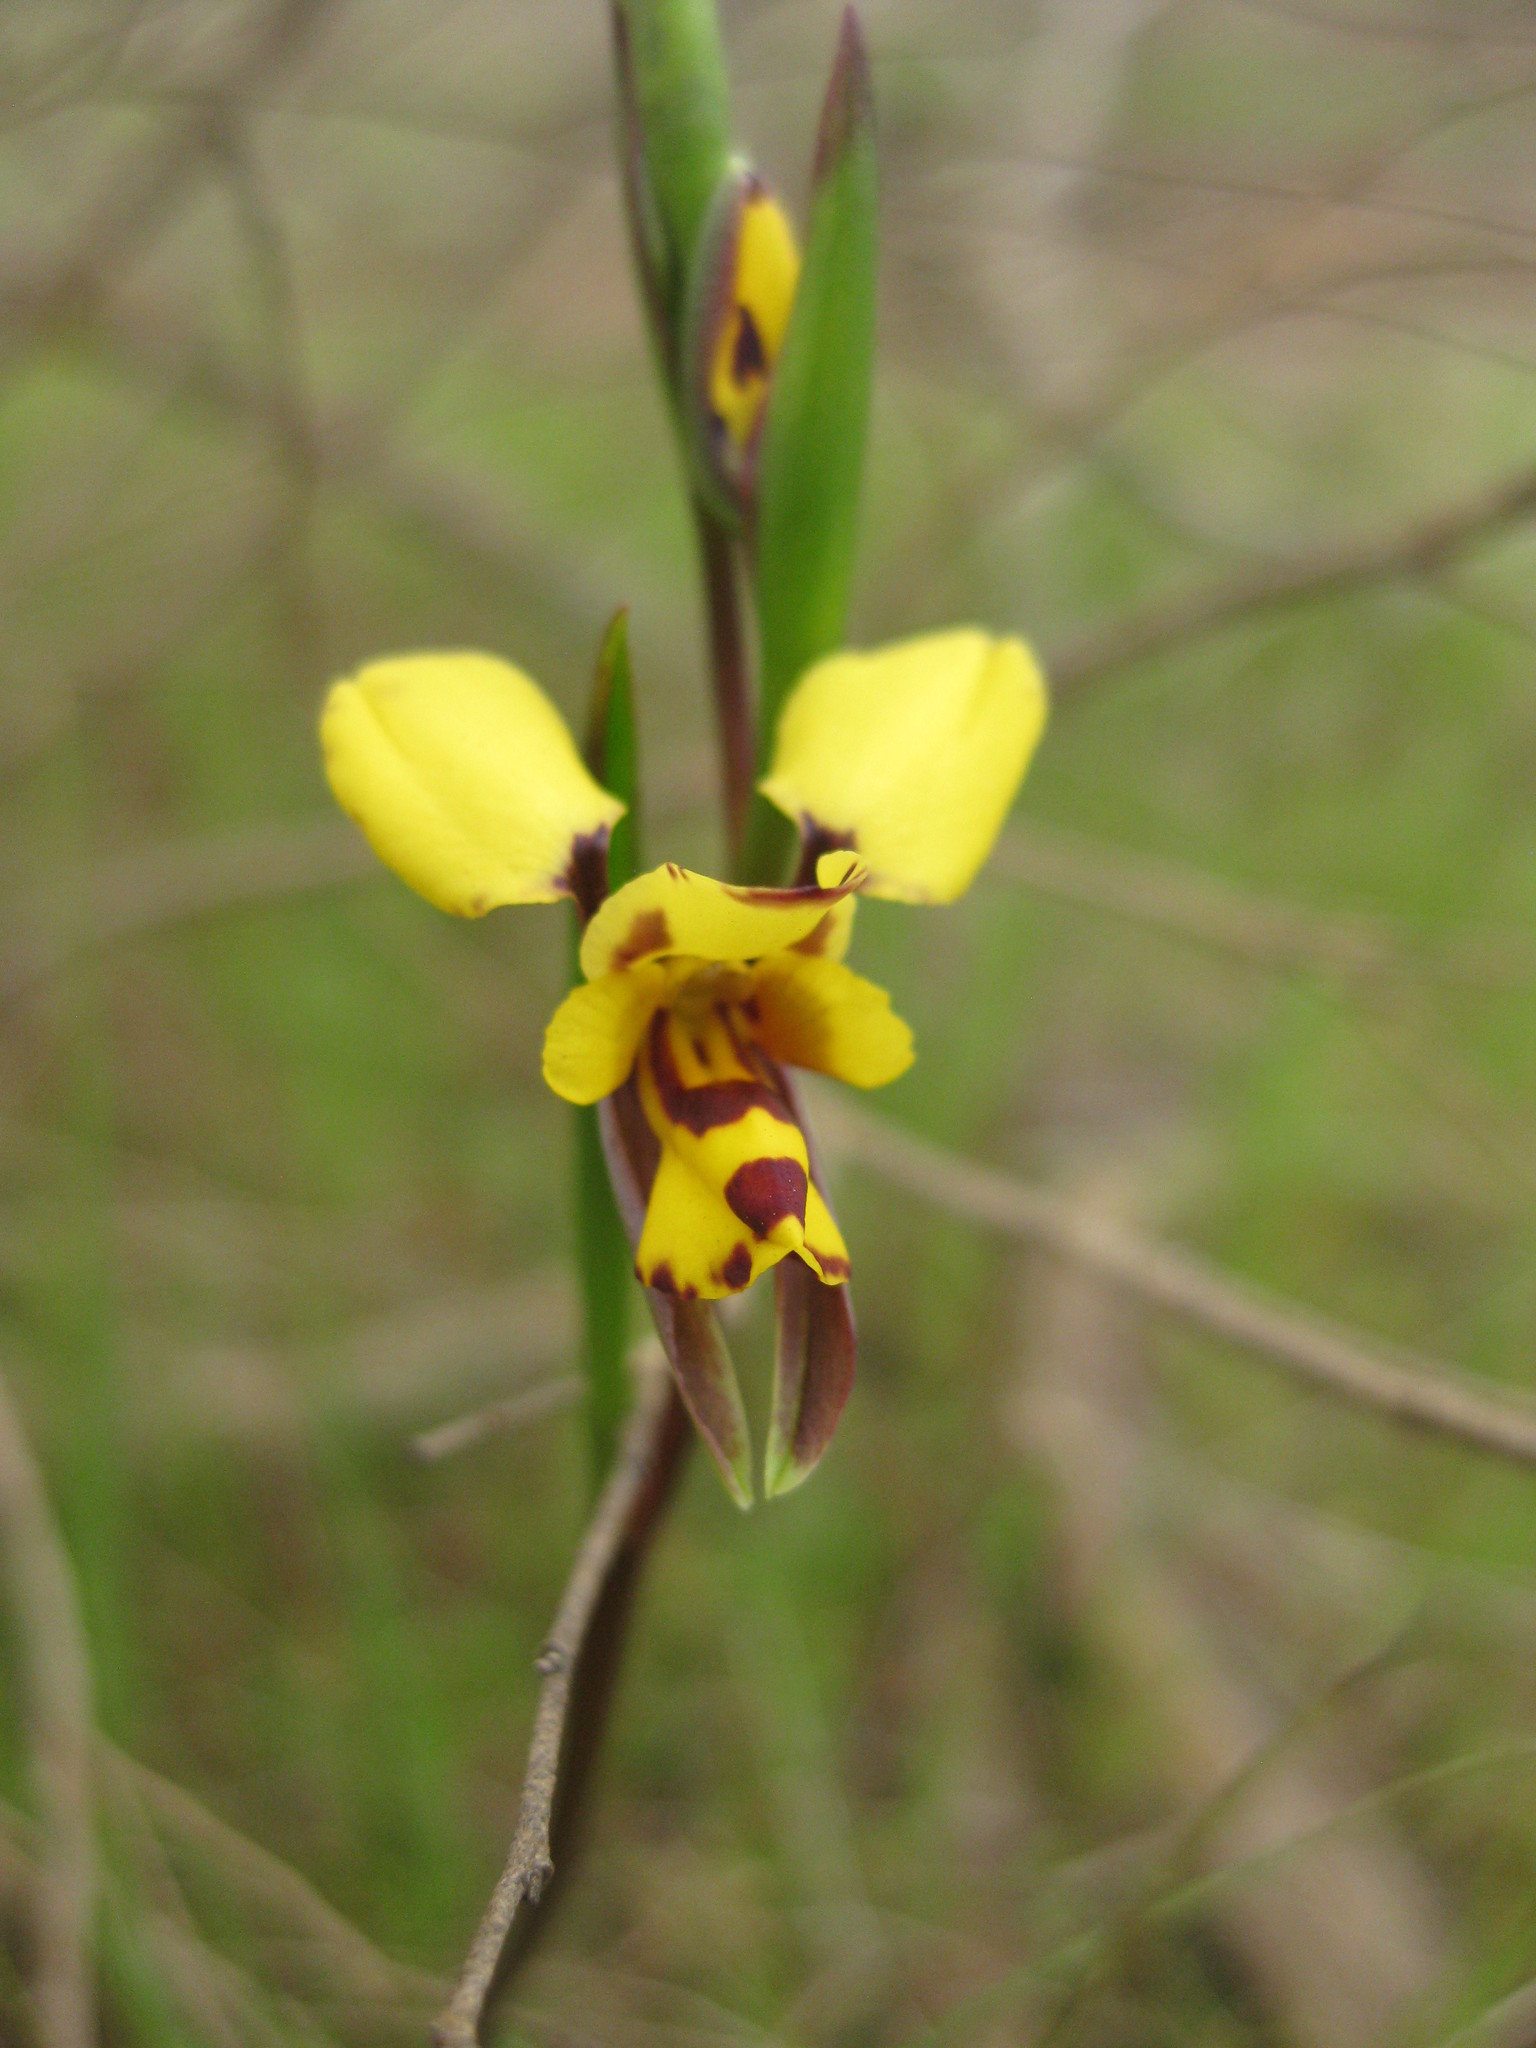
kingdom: Plantae
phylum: Tracheophyta
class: Liliopsida
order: Asparagales
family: Orchidaceae
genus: Diuris
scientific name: Diuris laxiflora
